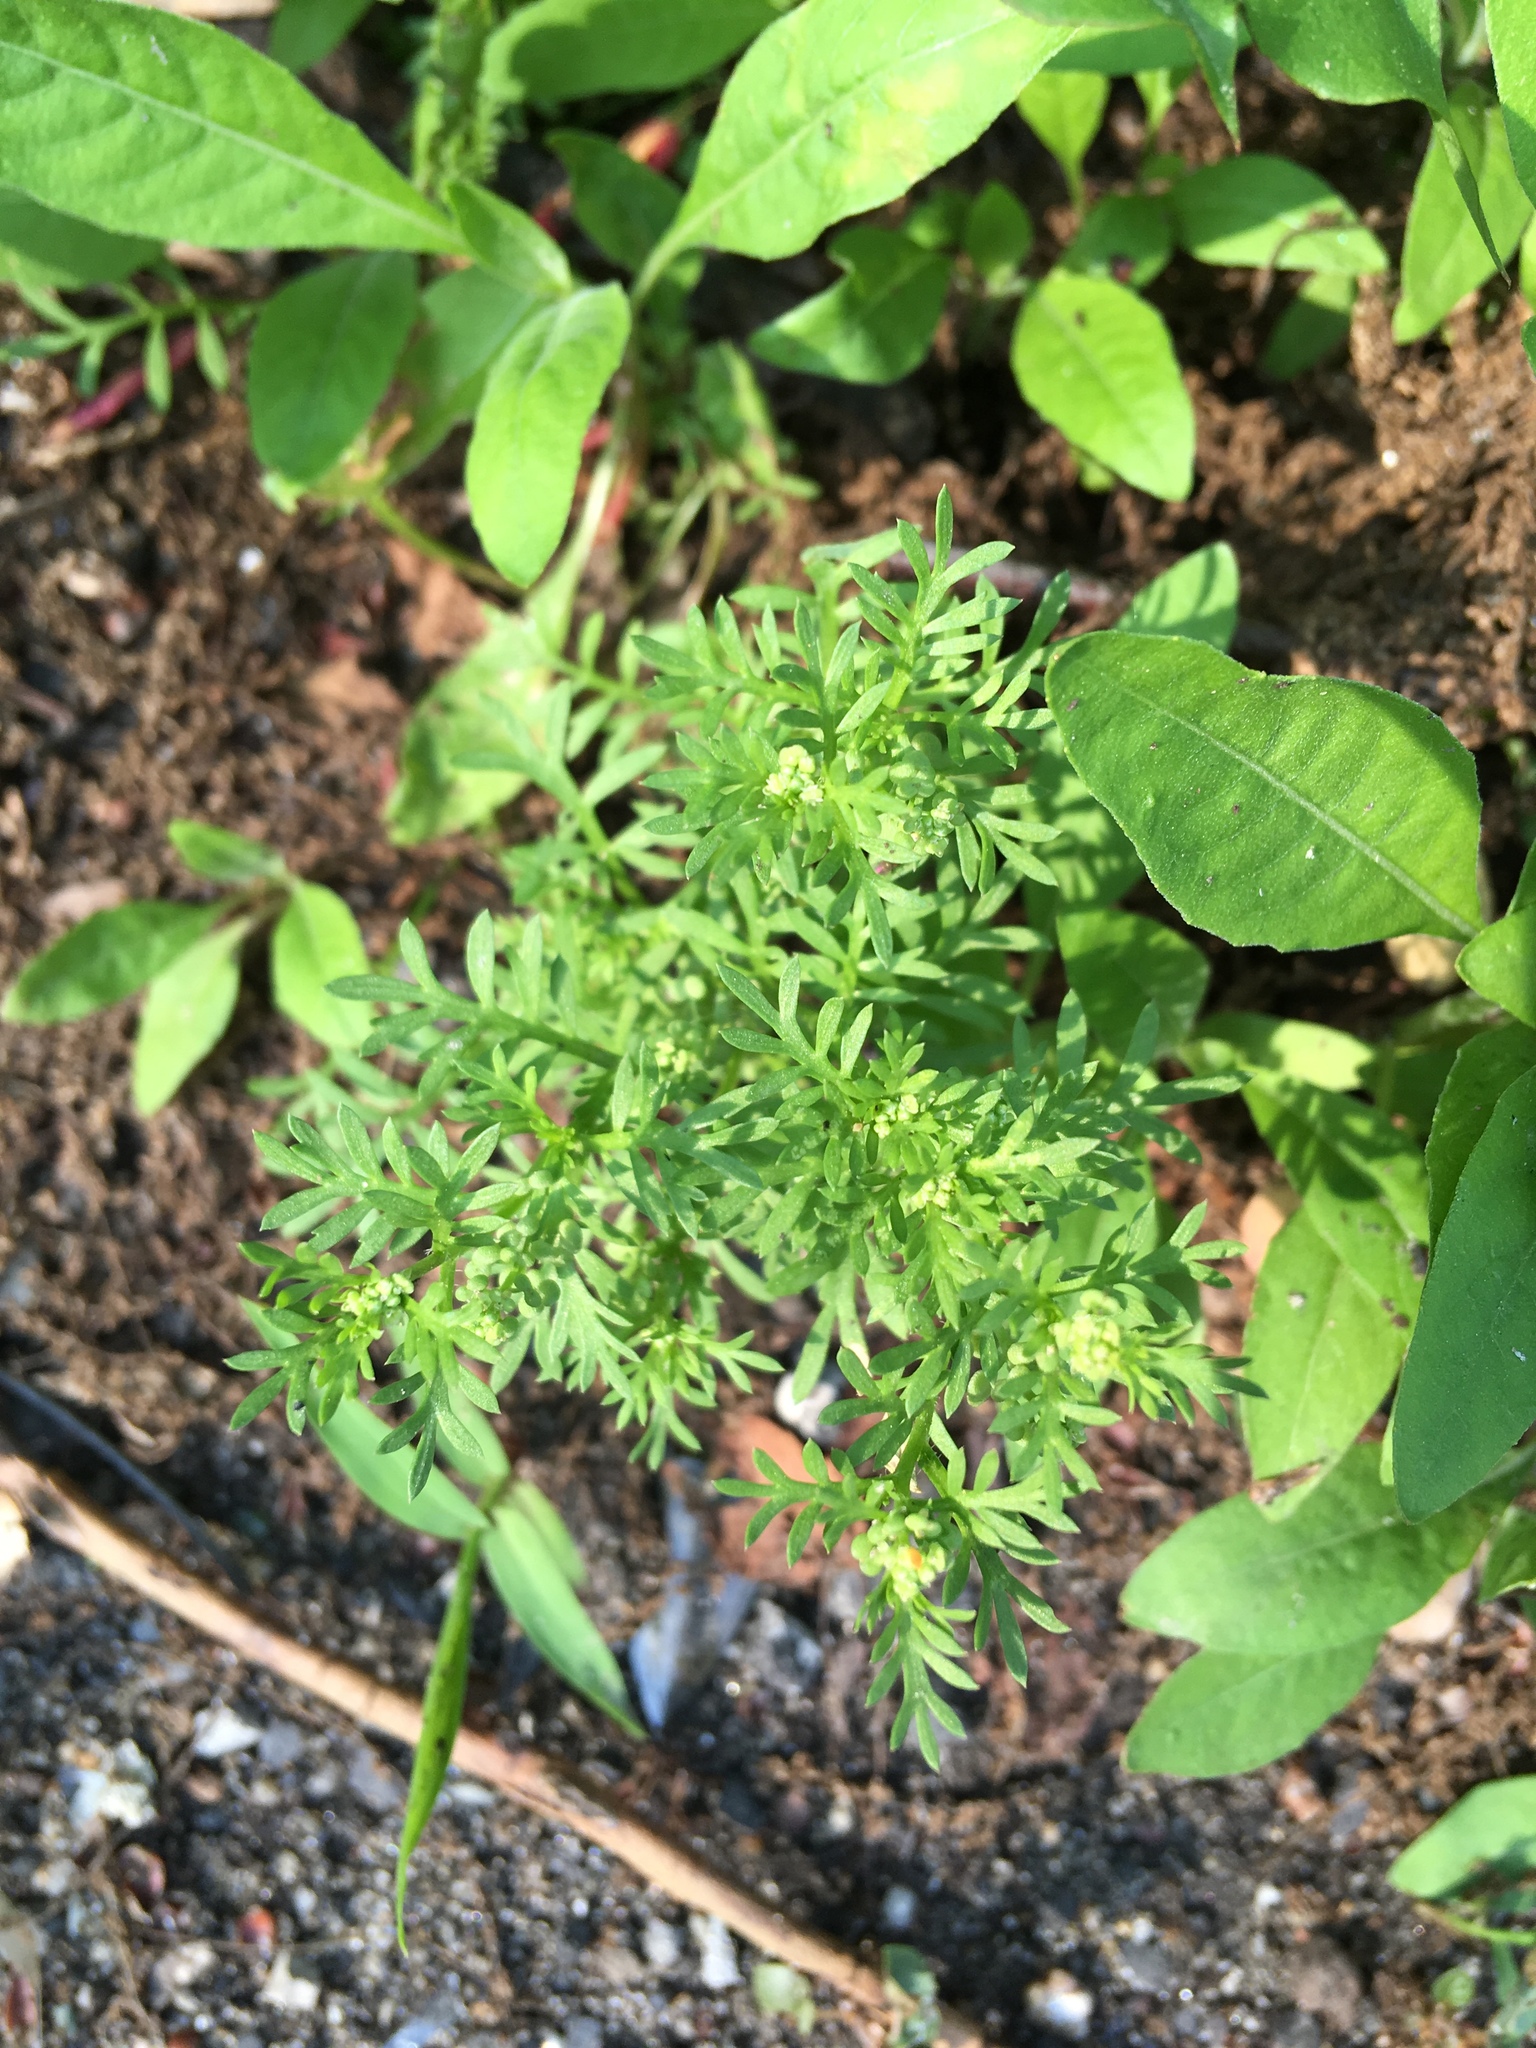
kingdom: Plantae
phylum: Tracheophyta
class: Magnoliopsida
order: Brassicales
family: Brassicaceae
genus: Lepidium
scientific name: Lepidium didymum
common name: Lesser swinecress
